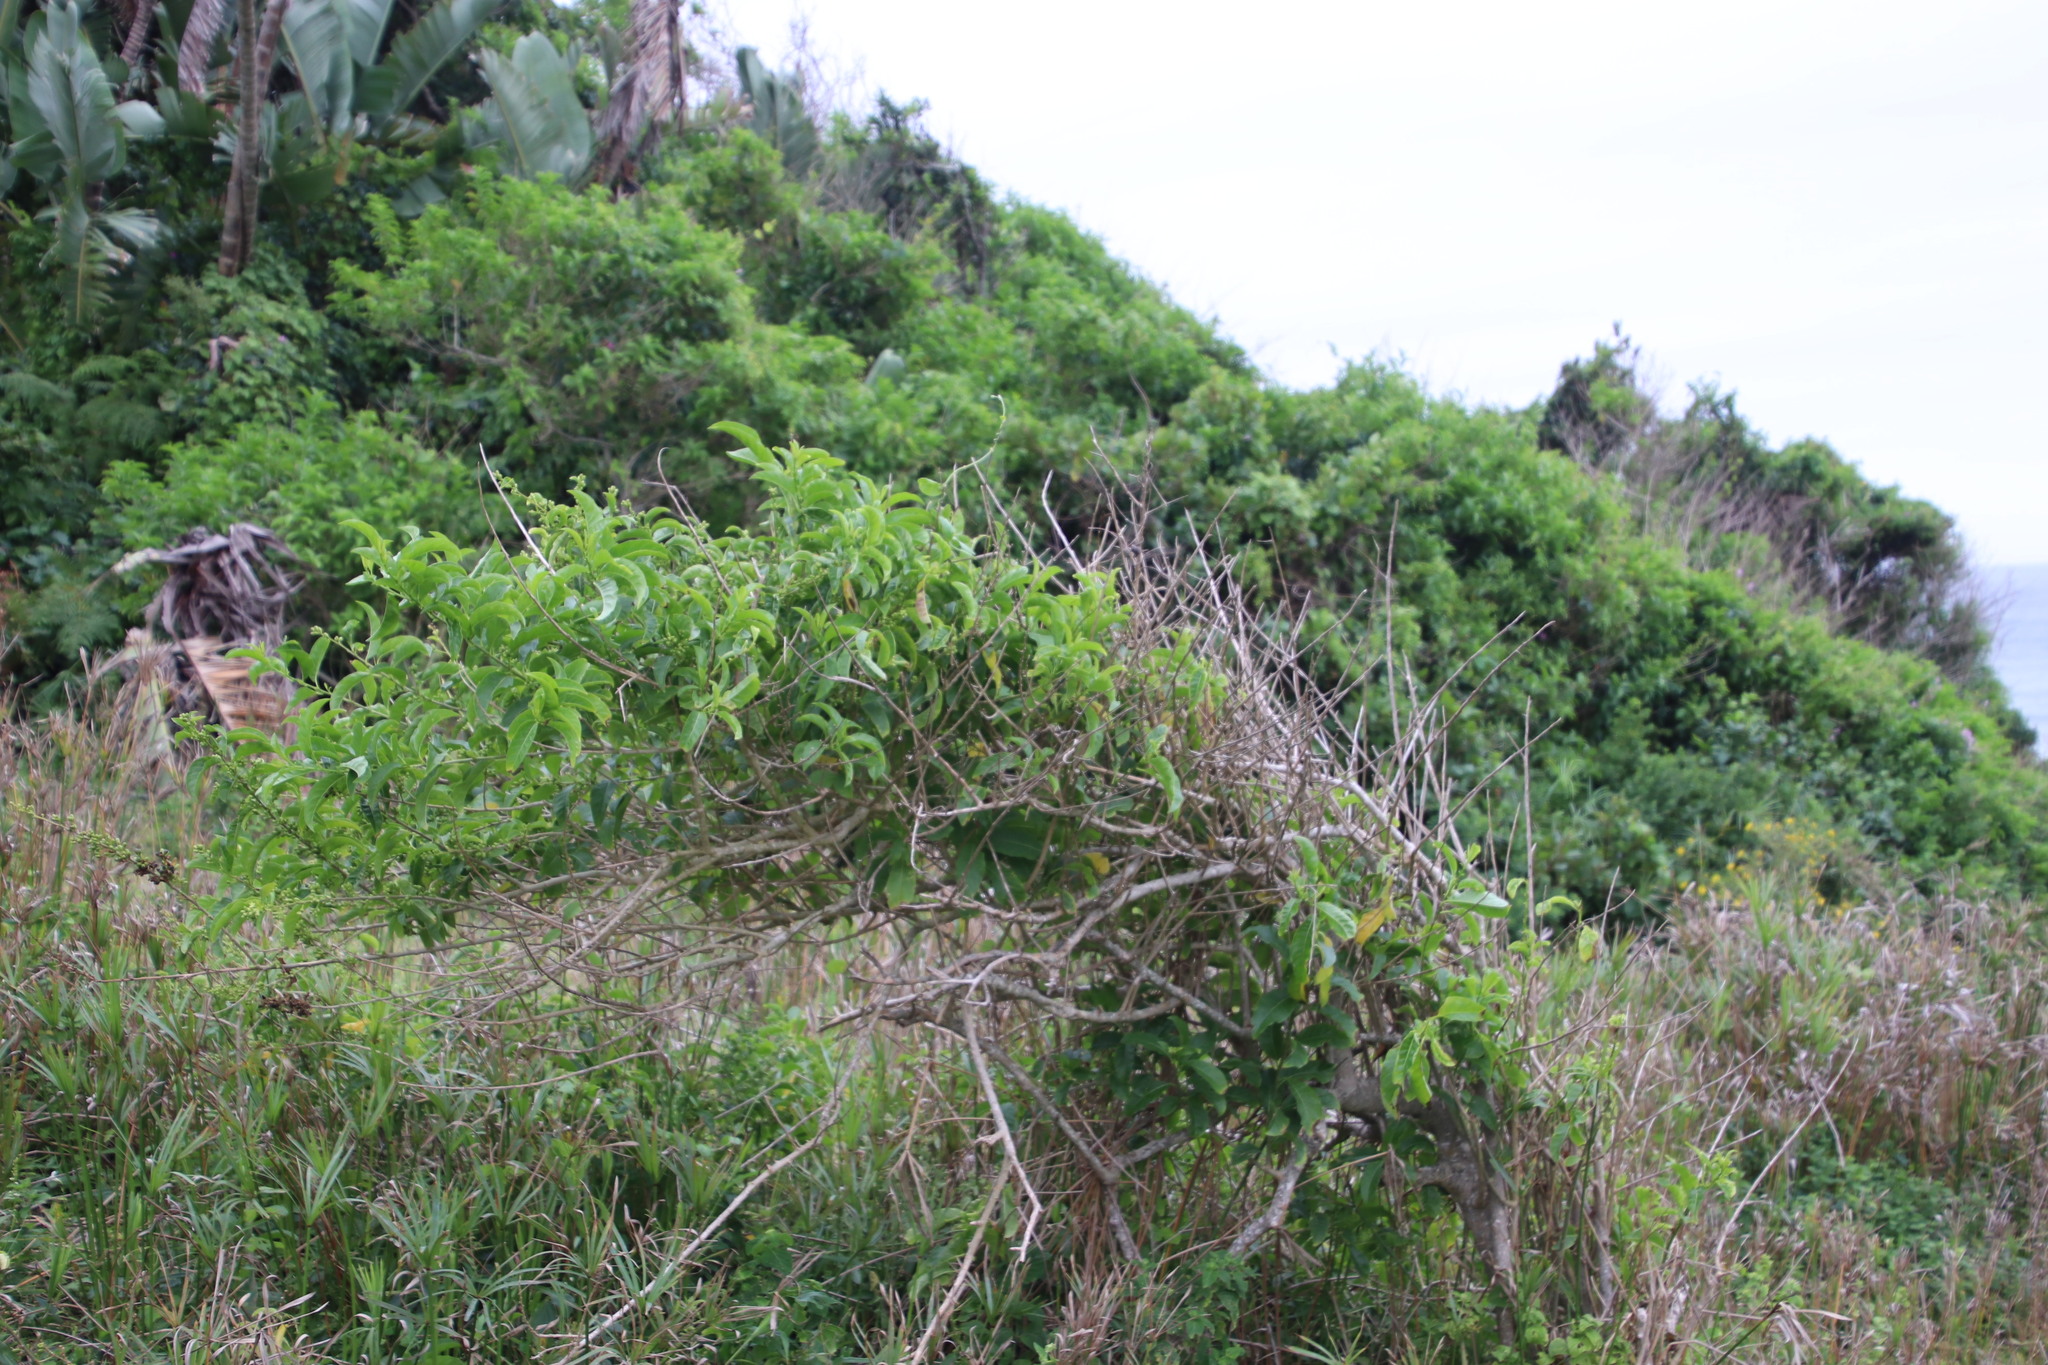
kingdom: Plantae
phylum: Tracheophyta
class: Magnoliopsida
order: Solanales
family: Solanaceae
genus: Cestrum
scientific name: Cestrum laevigatum
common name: Inkberry
